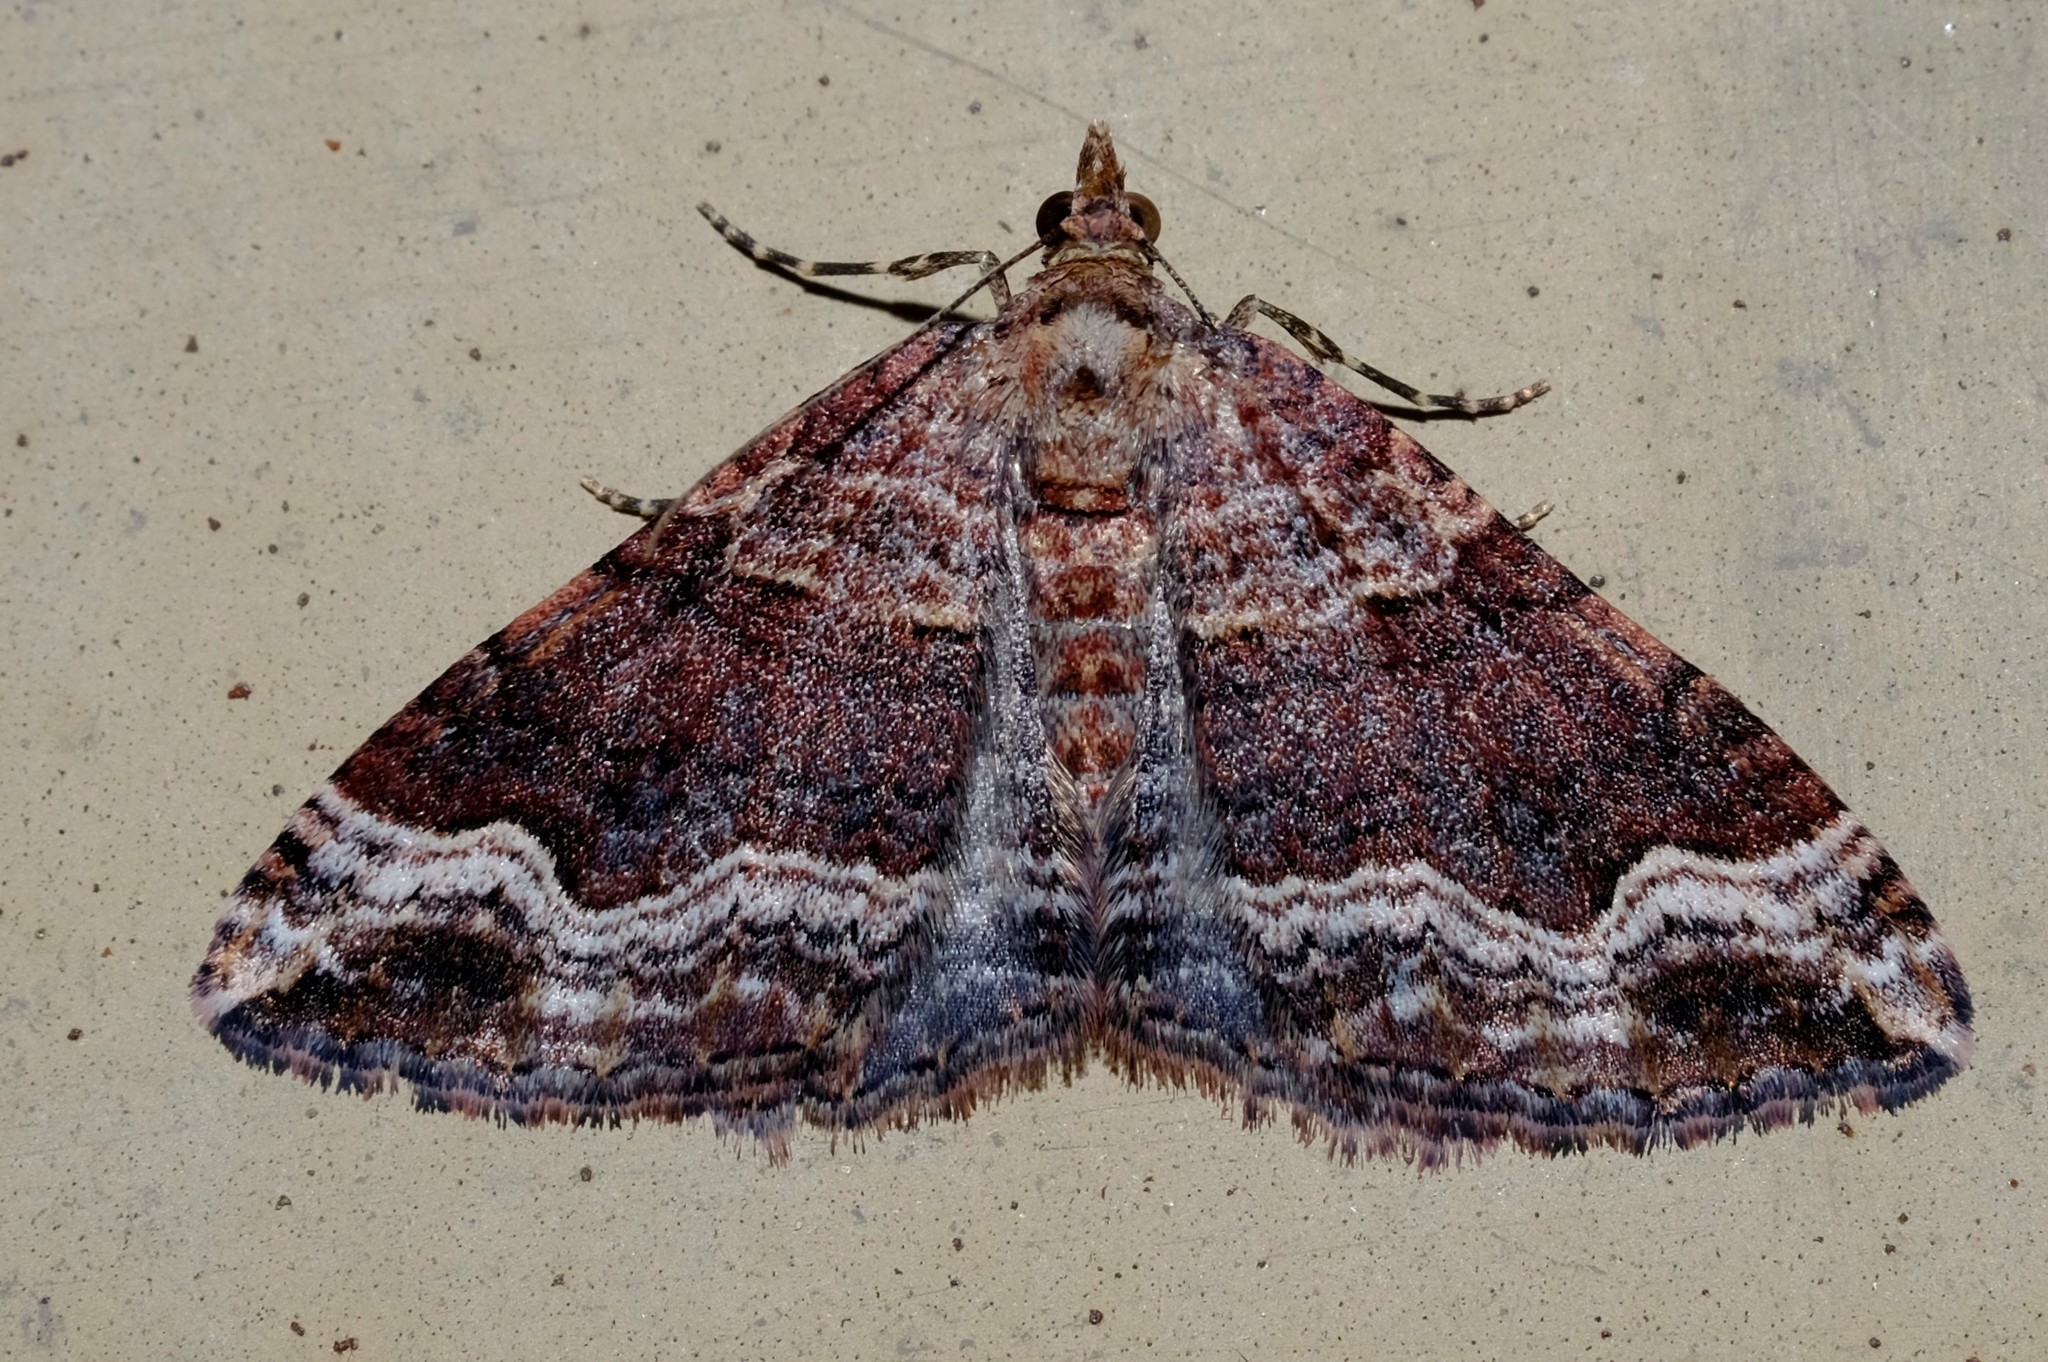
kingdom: Animalia
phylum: Arthropoda
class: Insecta
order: Lepidoptera
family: Geometridae
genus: Epyaxa
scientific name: Epyaxa subidaria
